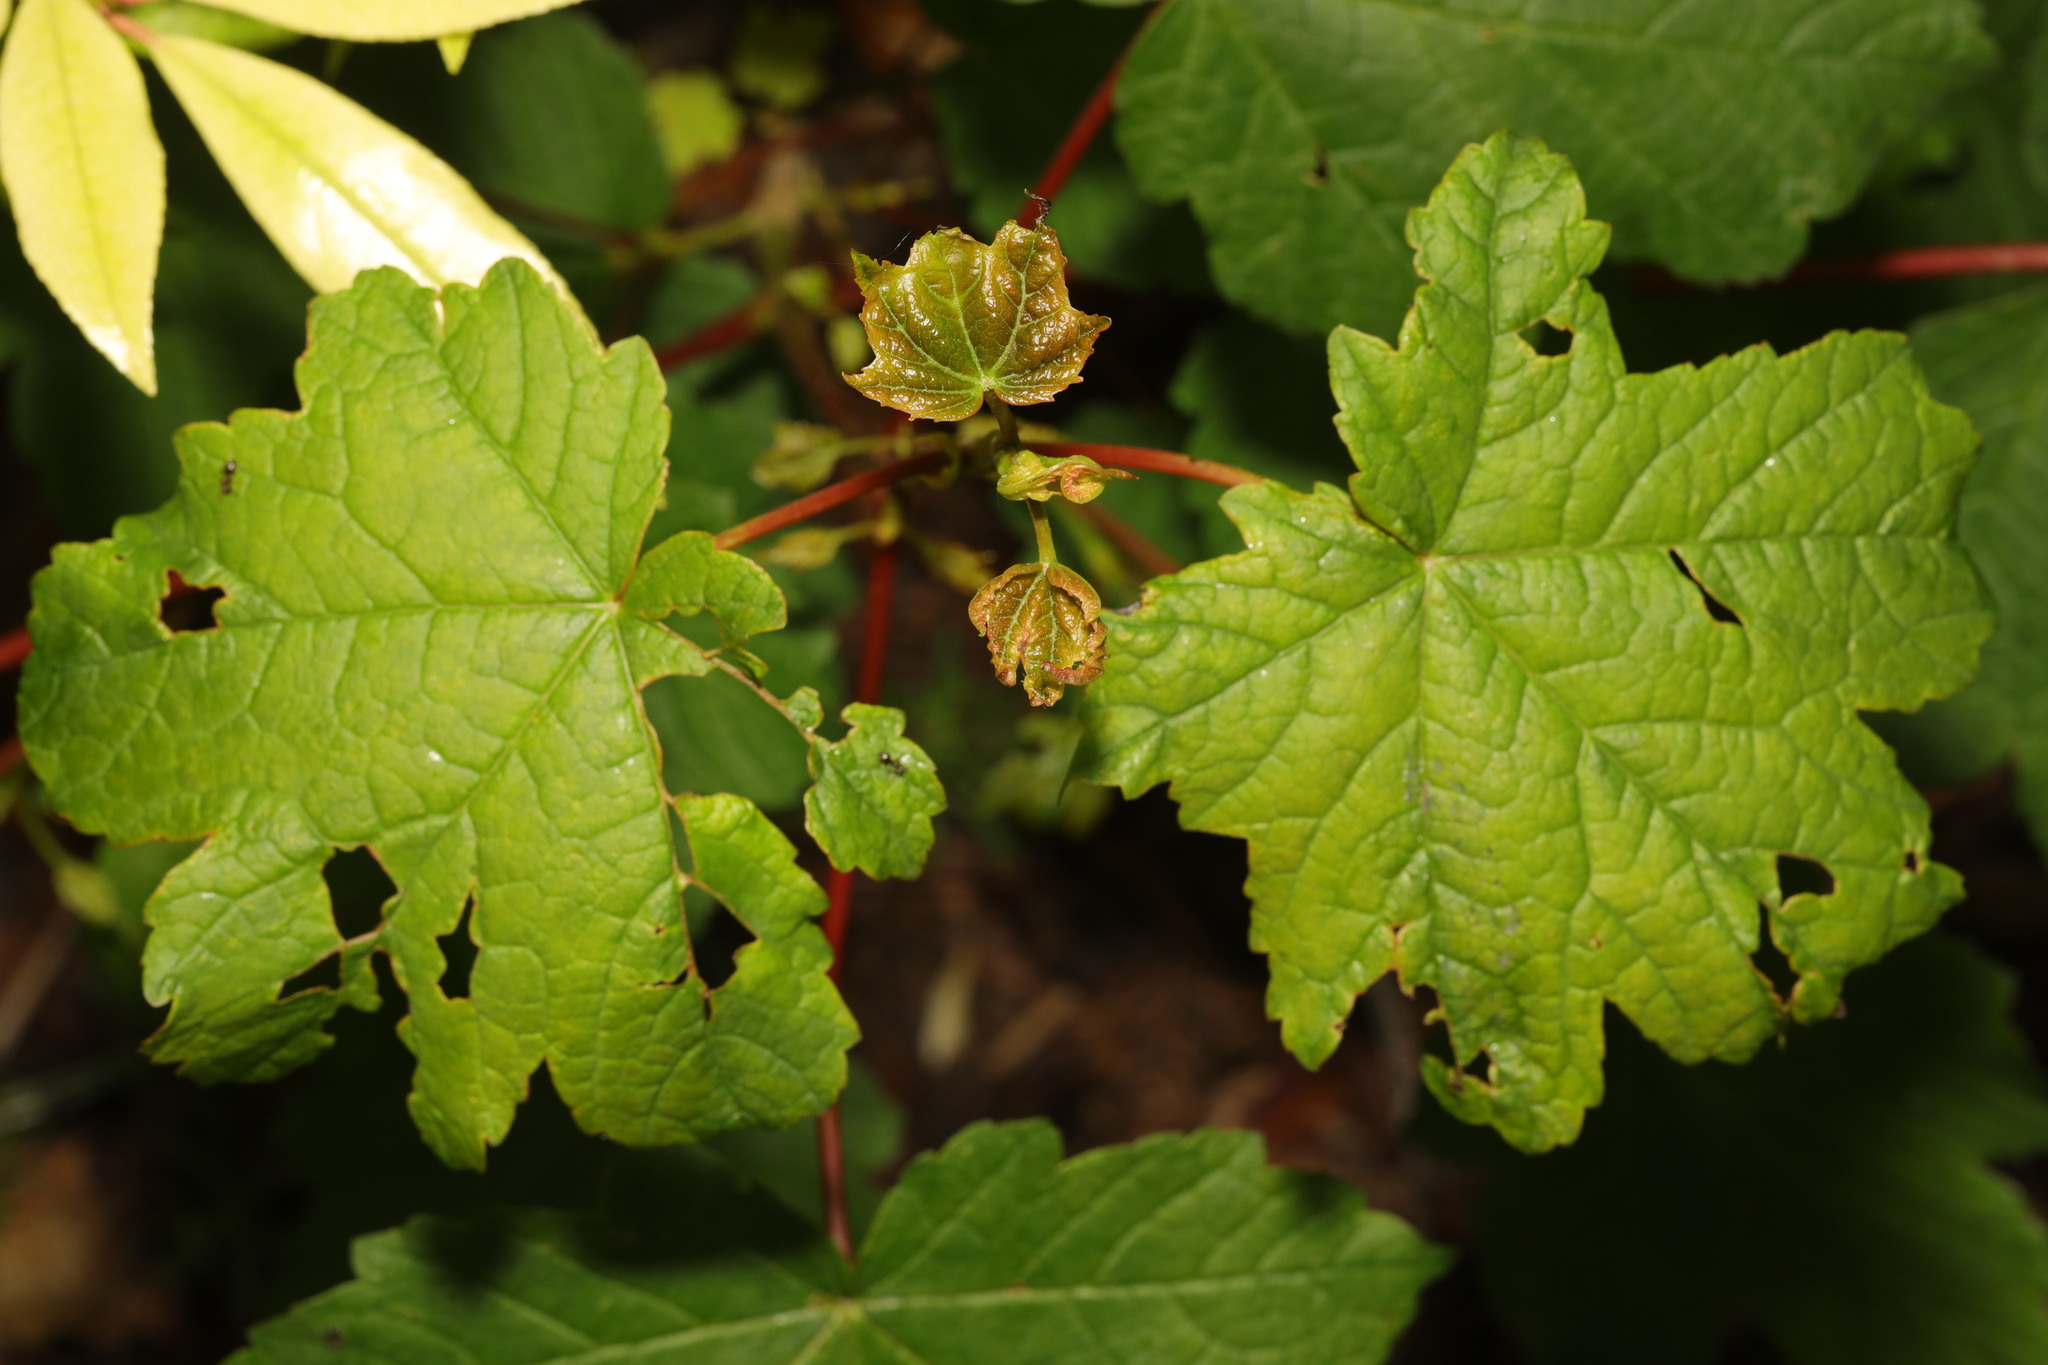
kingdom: Plantae
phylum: Tracheophyta
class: Magnoliopsida
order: Sapindales
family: Sapindaceae
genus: Acer
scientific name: Acer pseudoplatanus
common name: Sycamore
